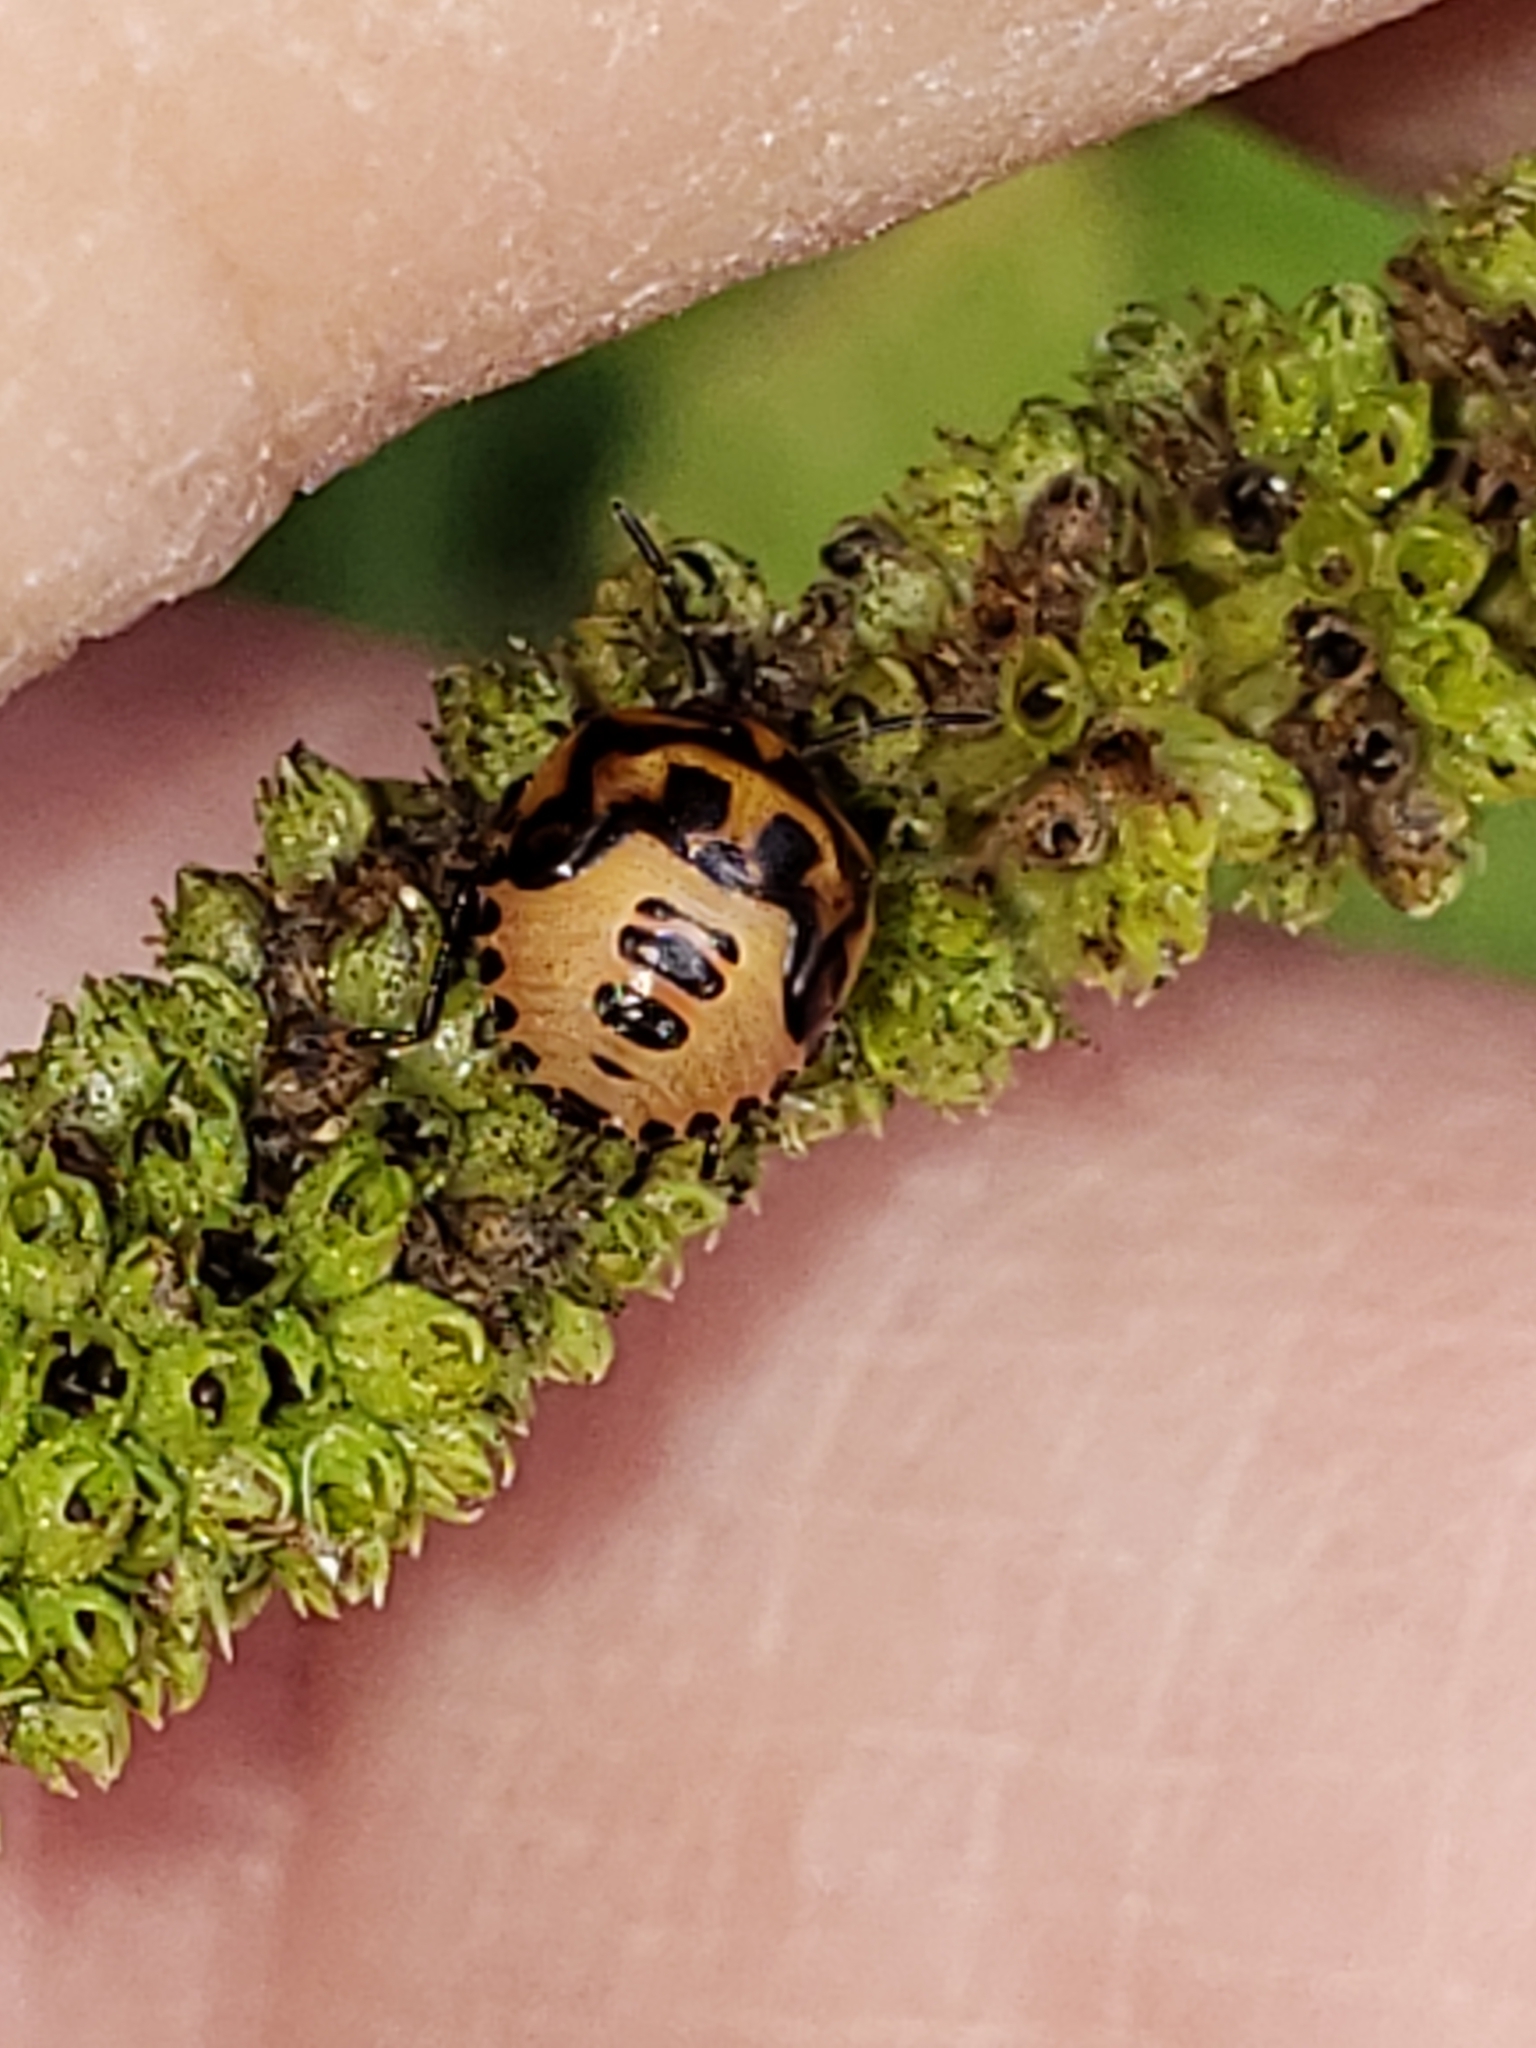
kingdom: Animalia
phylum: Arthropoda
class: Insecta
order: Hemiptera
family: Pentatomidae
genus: Cosmopepla
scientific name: Cosmopepla lintneriana
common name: Twice-stabbed stink bug
